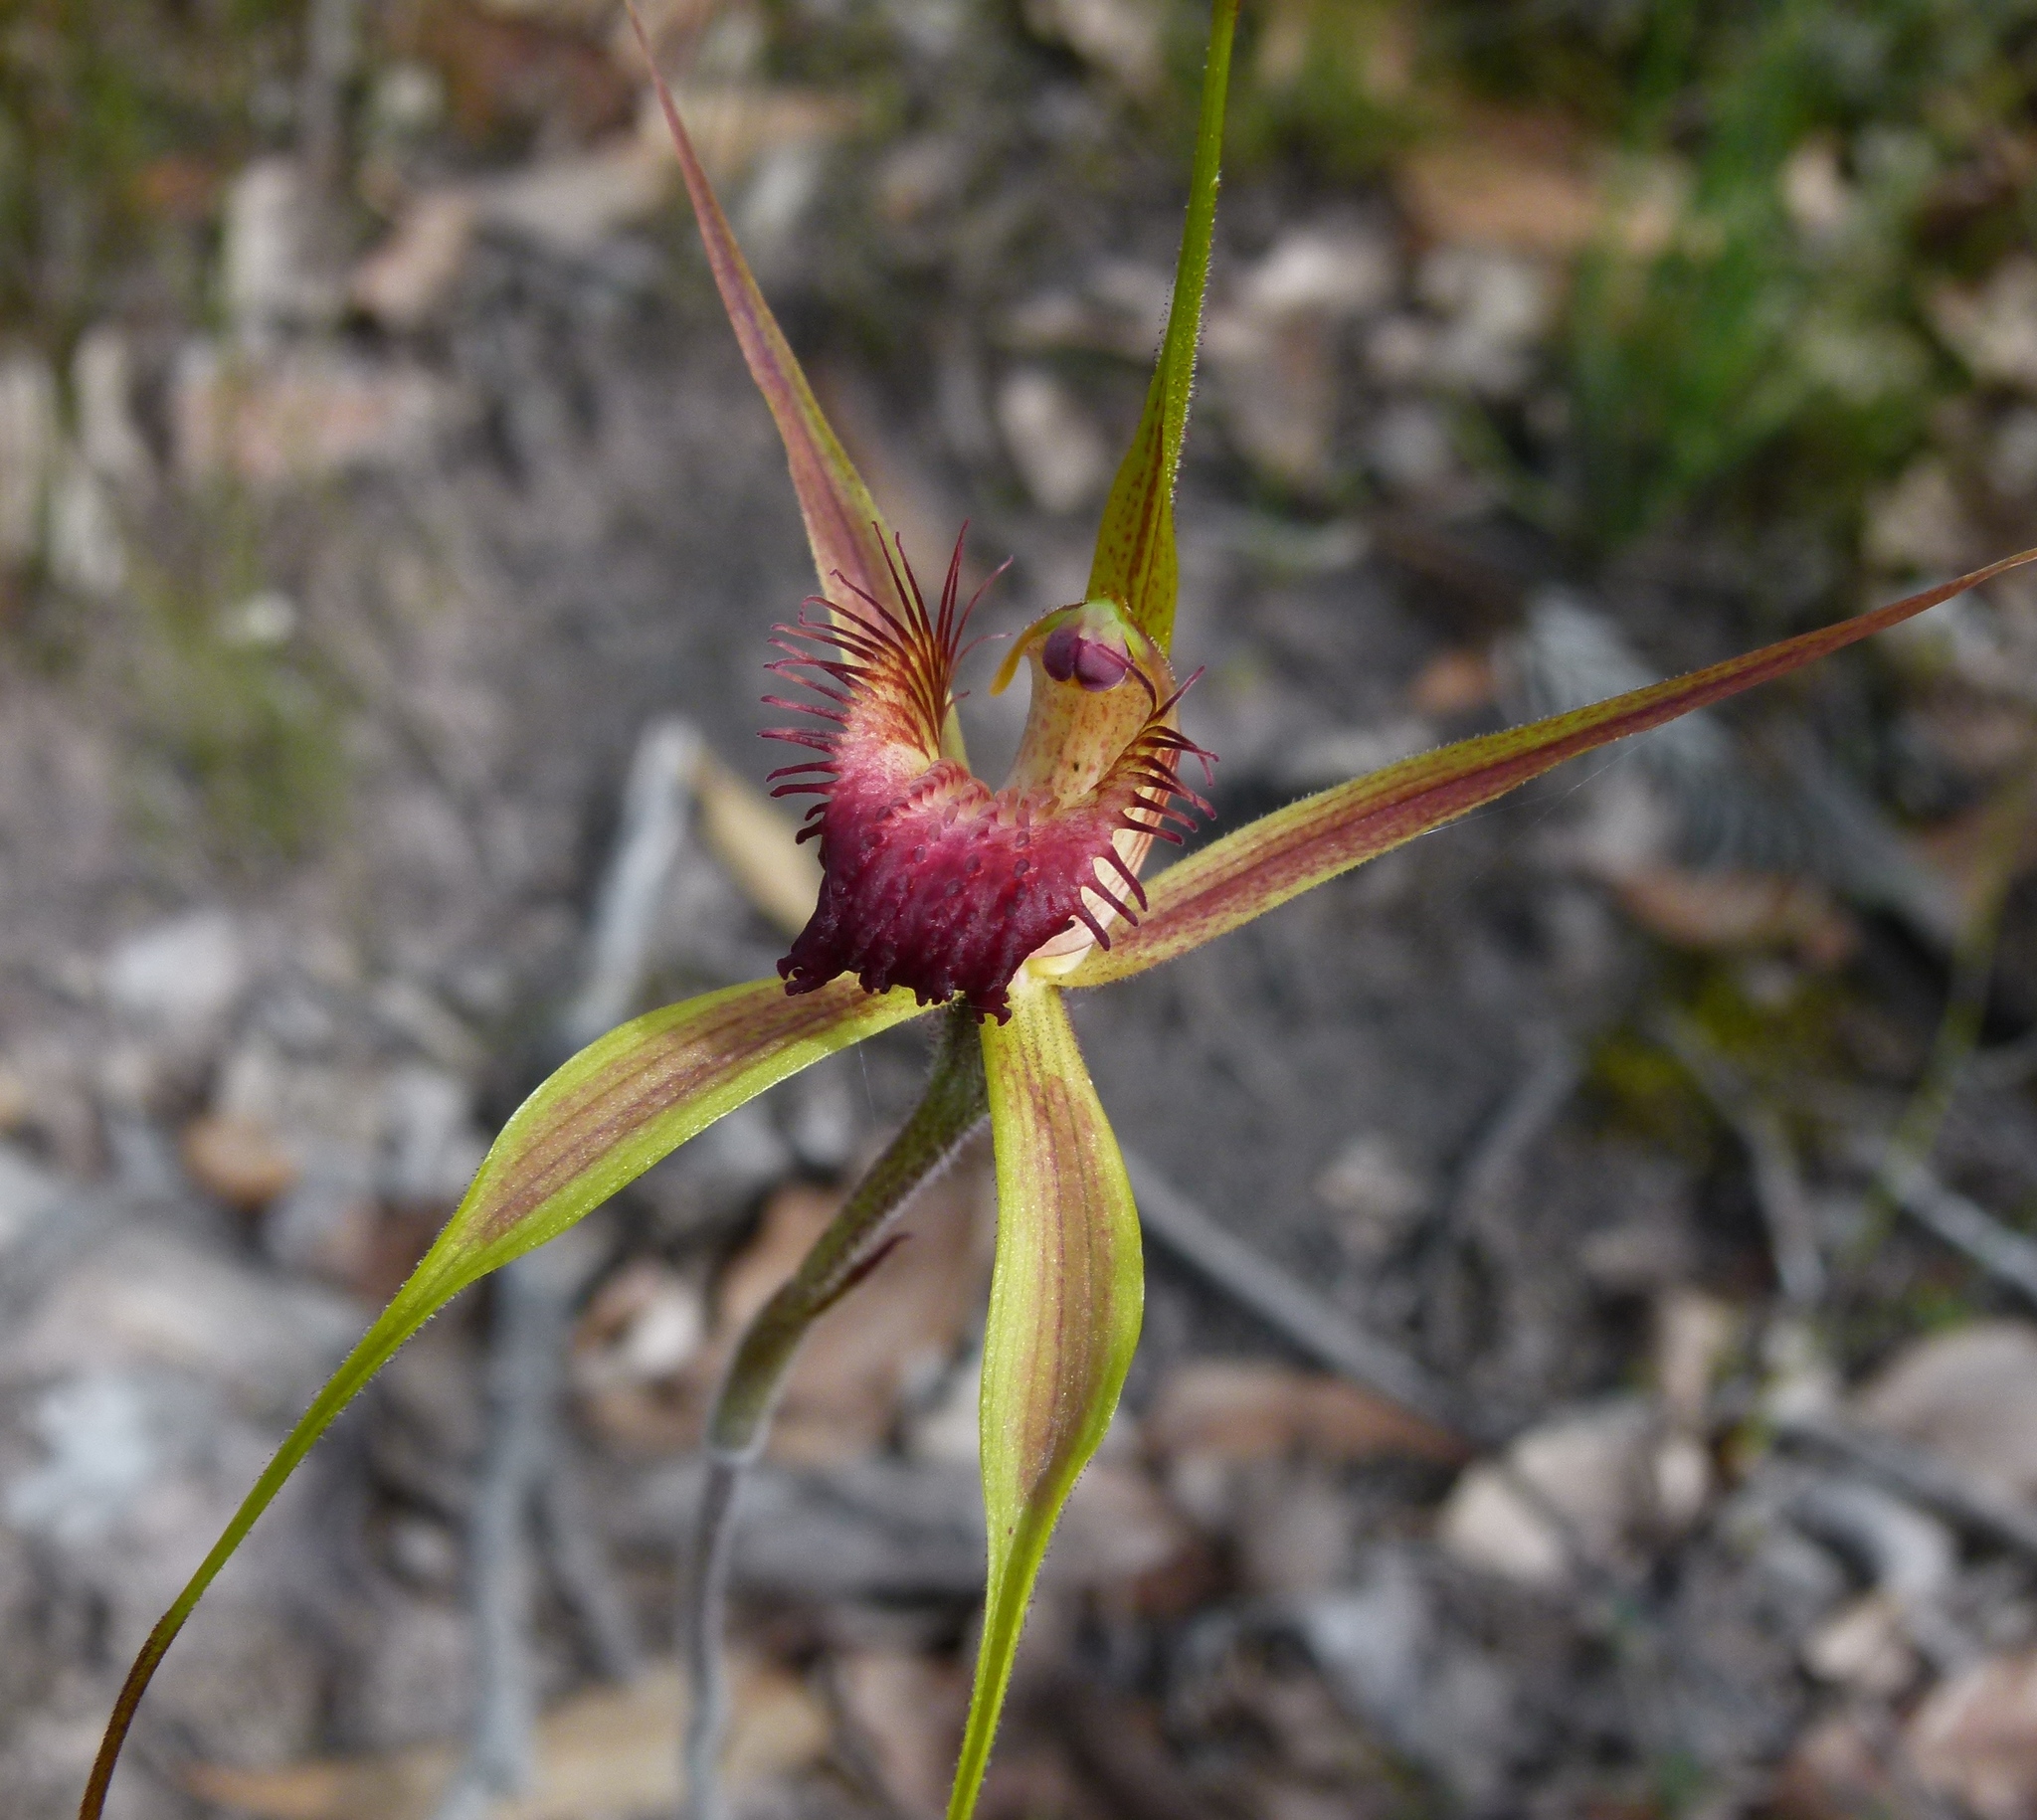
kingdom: Plantae
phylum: Tracheophyta
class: Liliopsida
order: Asparagales
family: Orchidaceae
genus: Caladenia
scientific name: Caladenia pectinata
